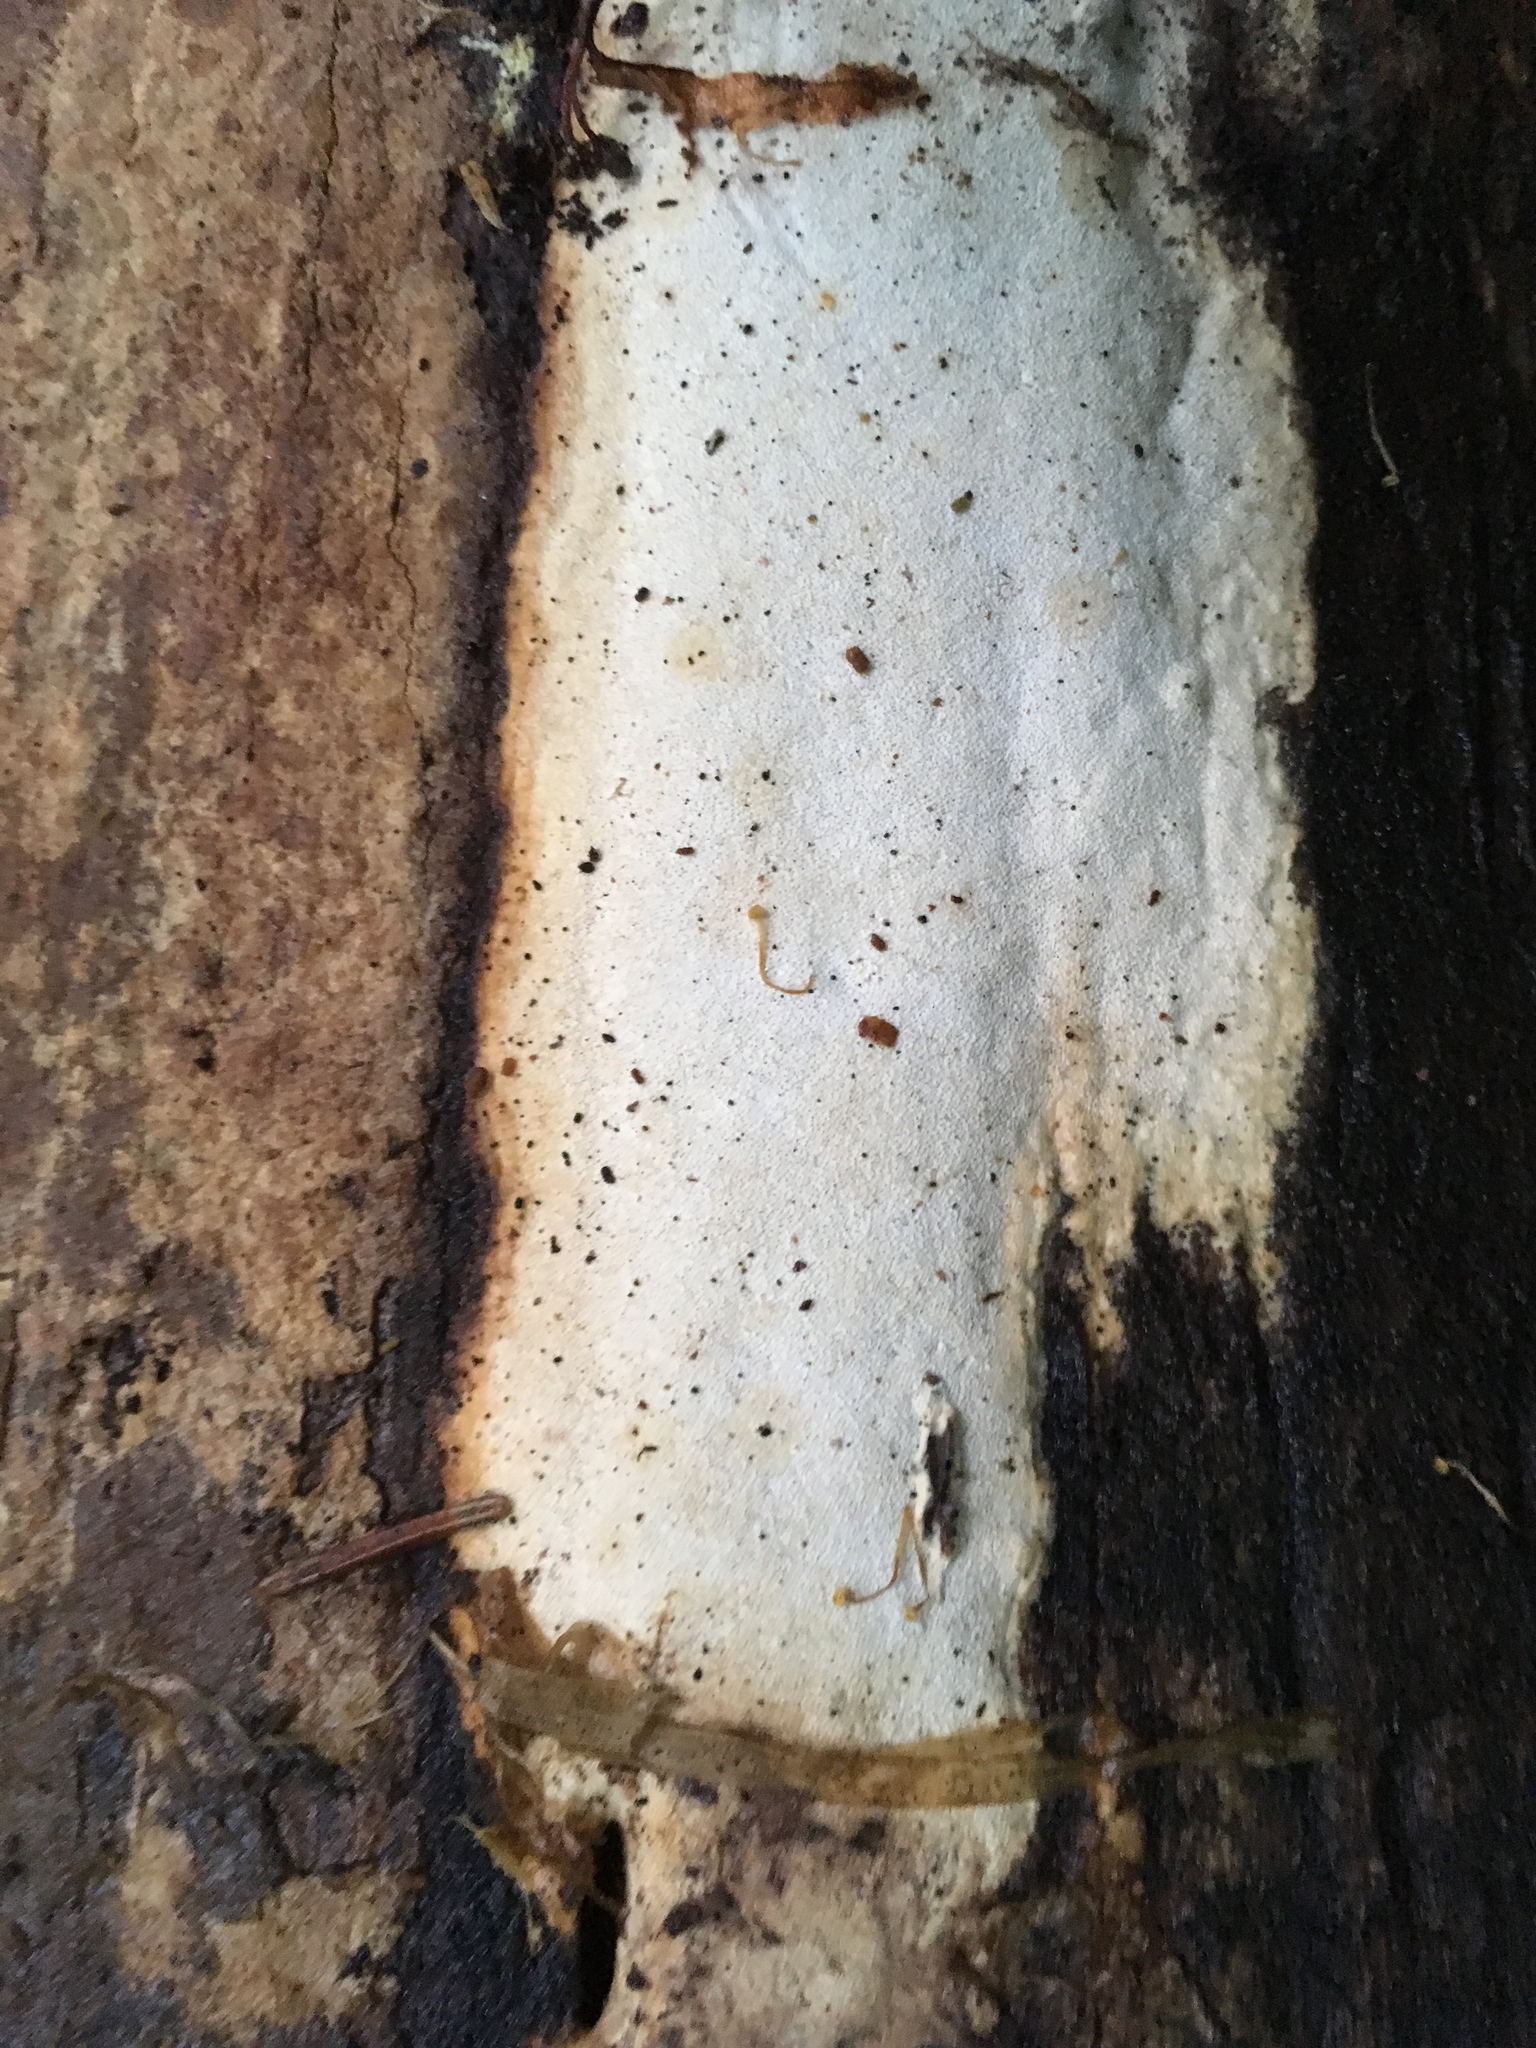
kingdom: Fungi
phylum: Basidiomycota
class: Agaricomycetes
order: Polyporales
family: Polyporaceae
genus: Poriella
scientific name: Poriella subacida
